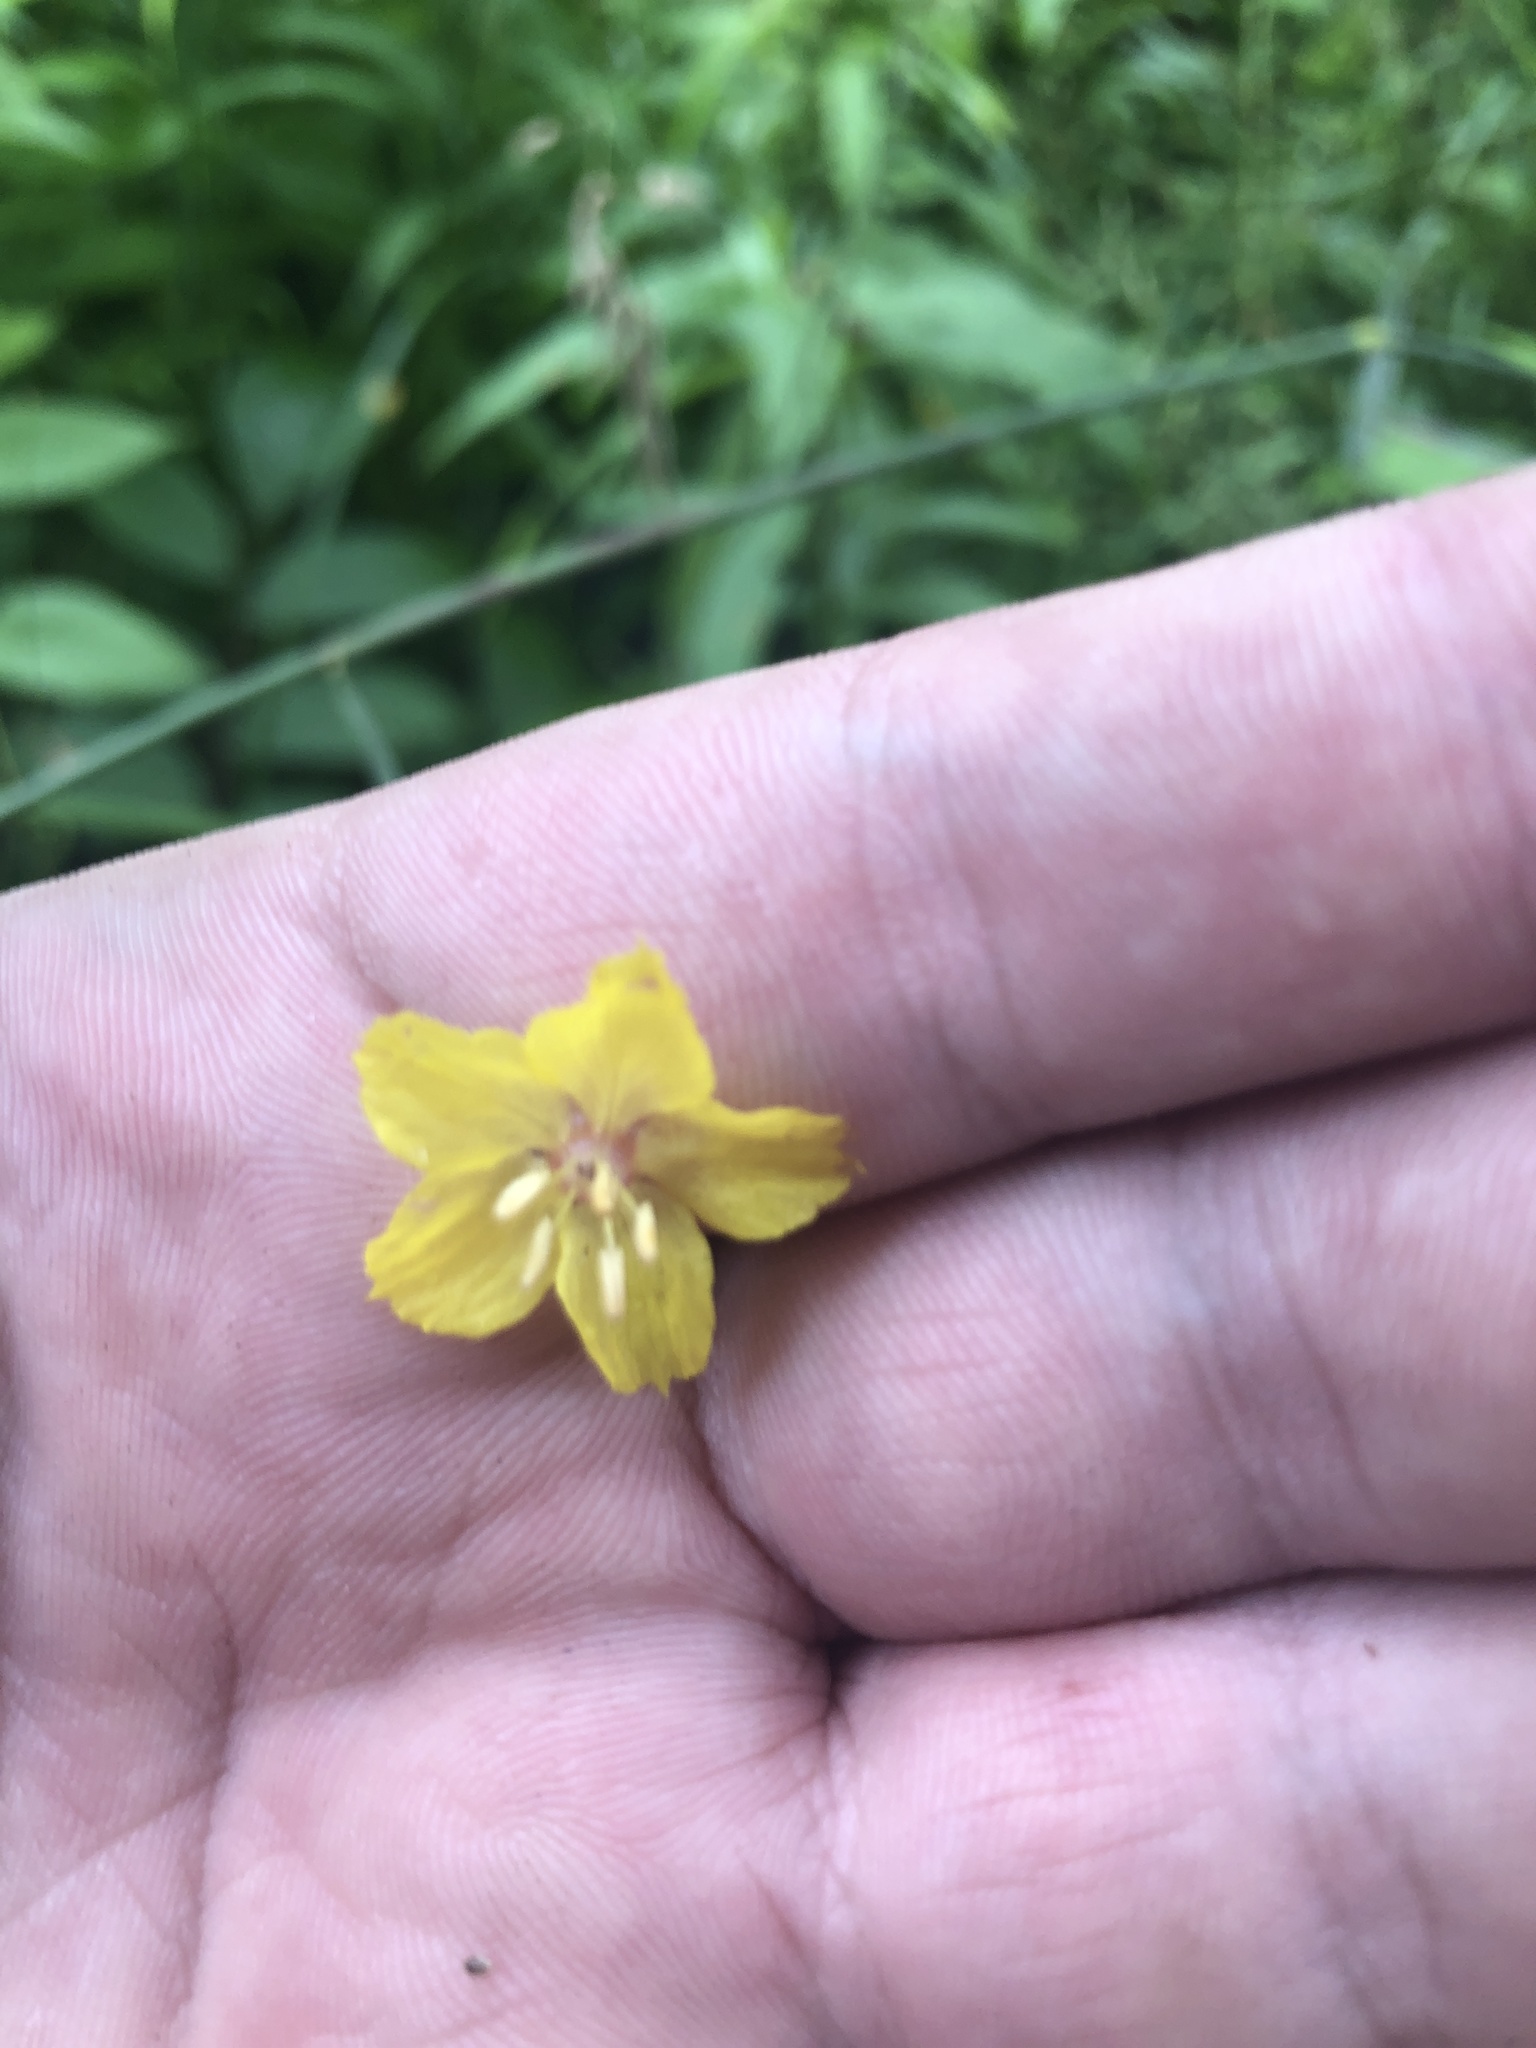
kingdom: Plantae
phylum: Tracheophyta
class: Magnoliopsida
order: Ericales
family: Primulaceae
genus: Lysimachia
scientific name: Lysimachia ciliata
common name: Fringed loosestrife
